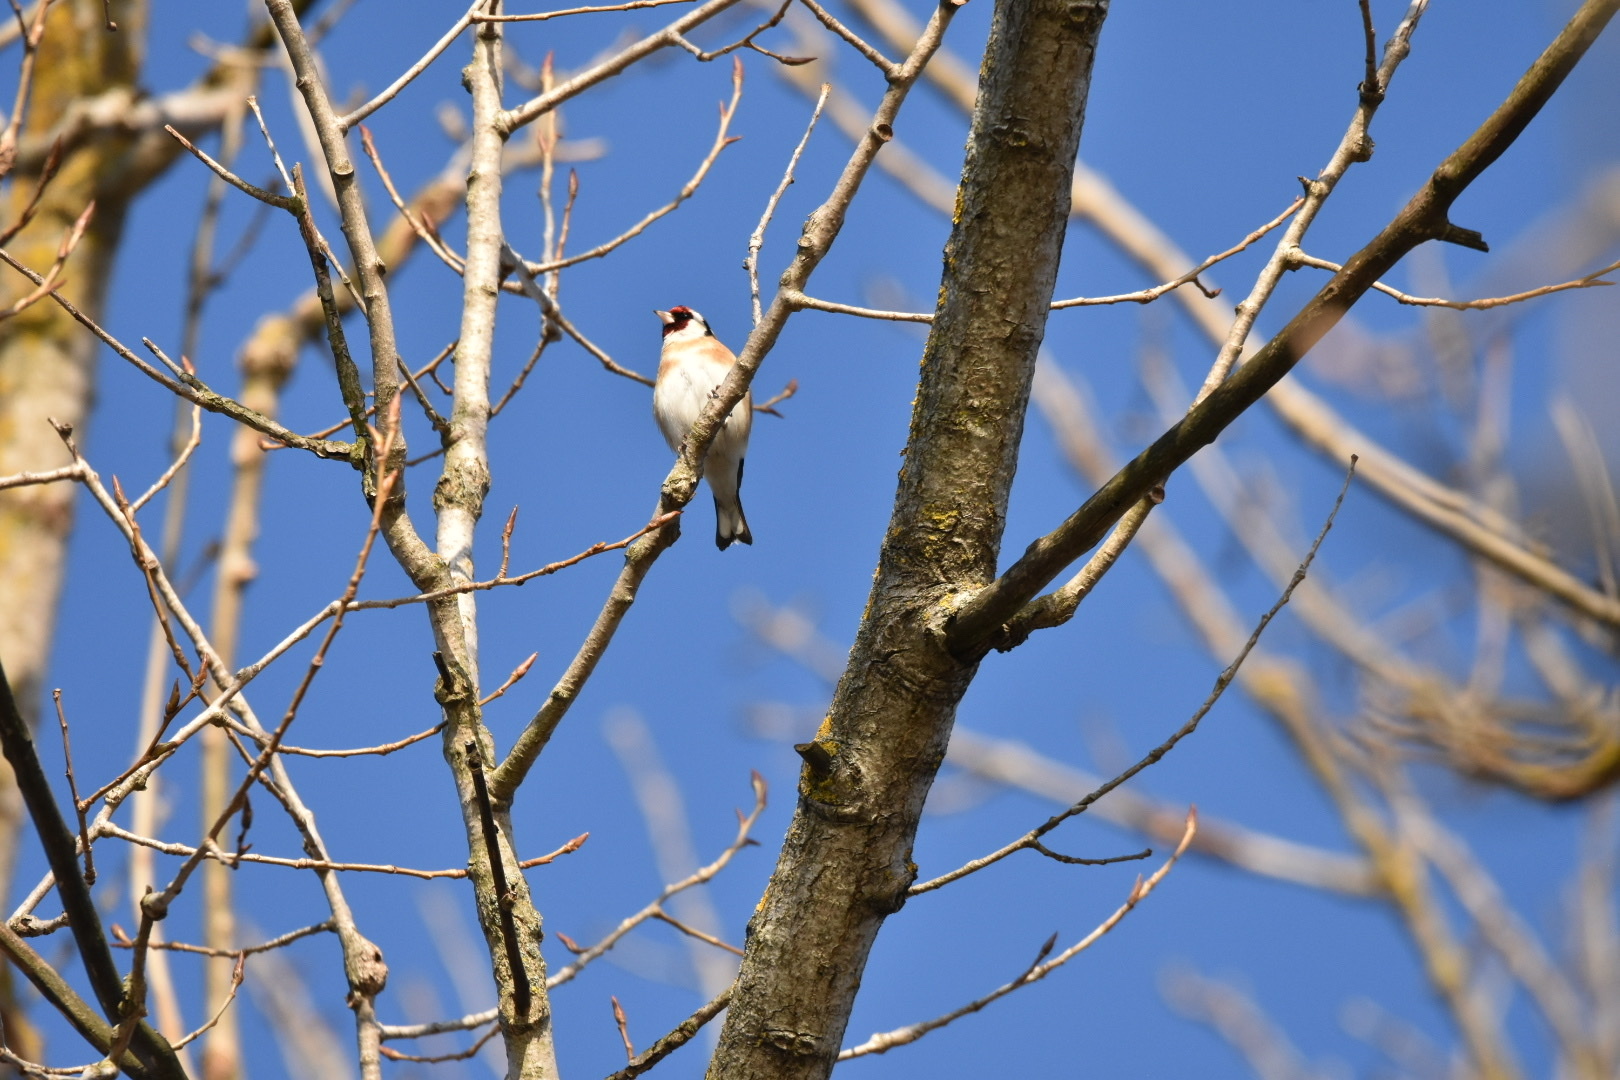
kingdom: Animalia
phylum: Chordata
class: Aves
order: Passeriformes
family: Fringillidae
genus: Carduelis
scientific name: Carduelis carduelis
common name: European goldfinch
